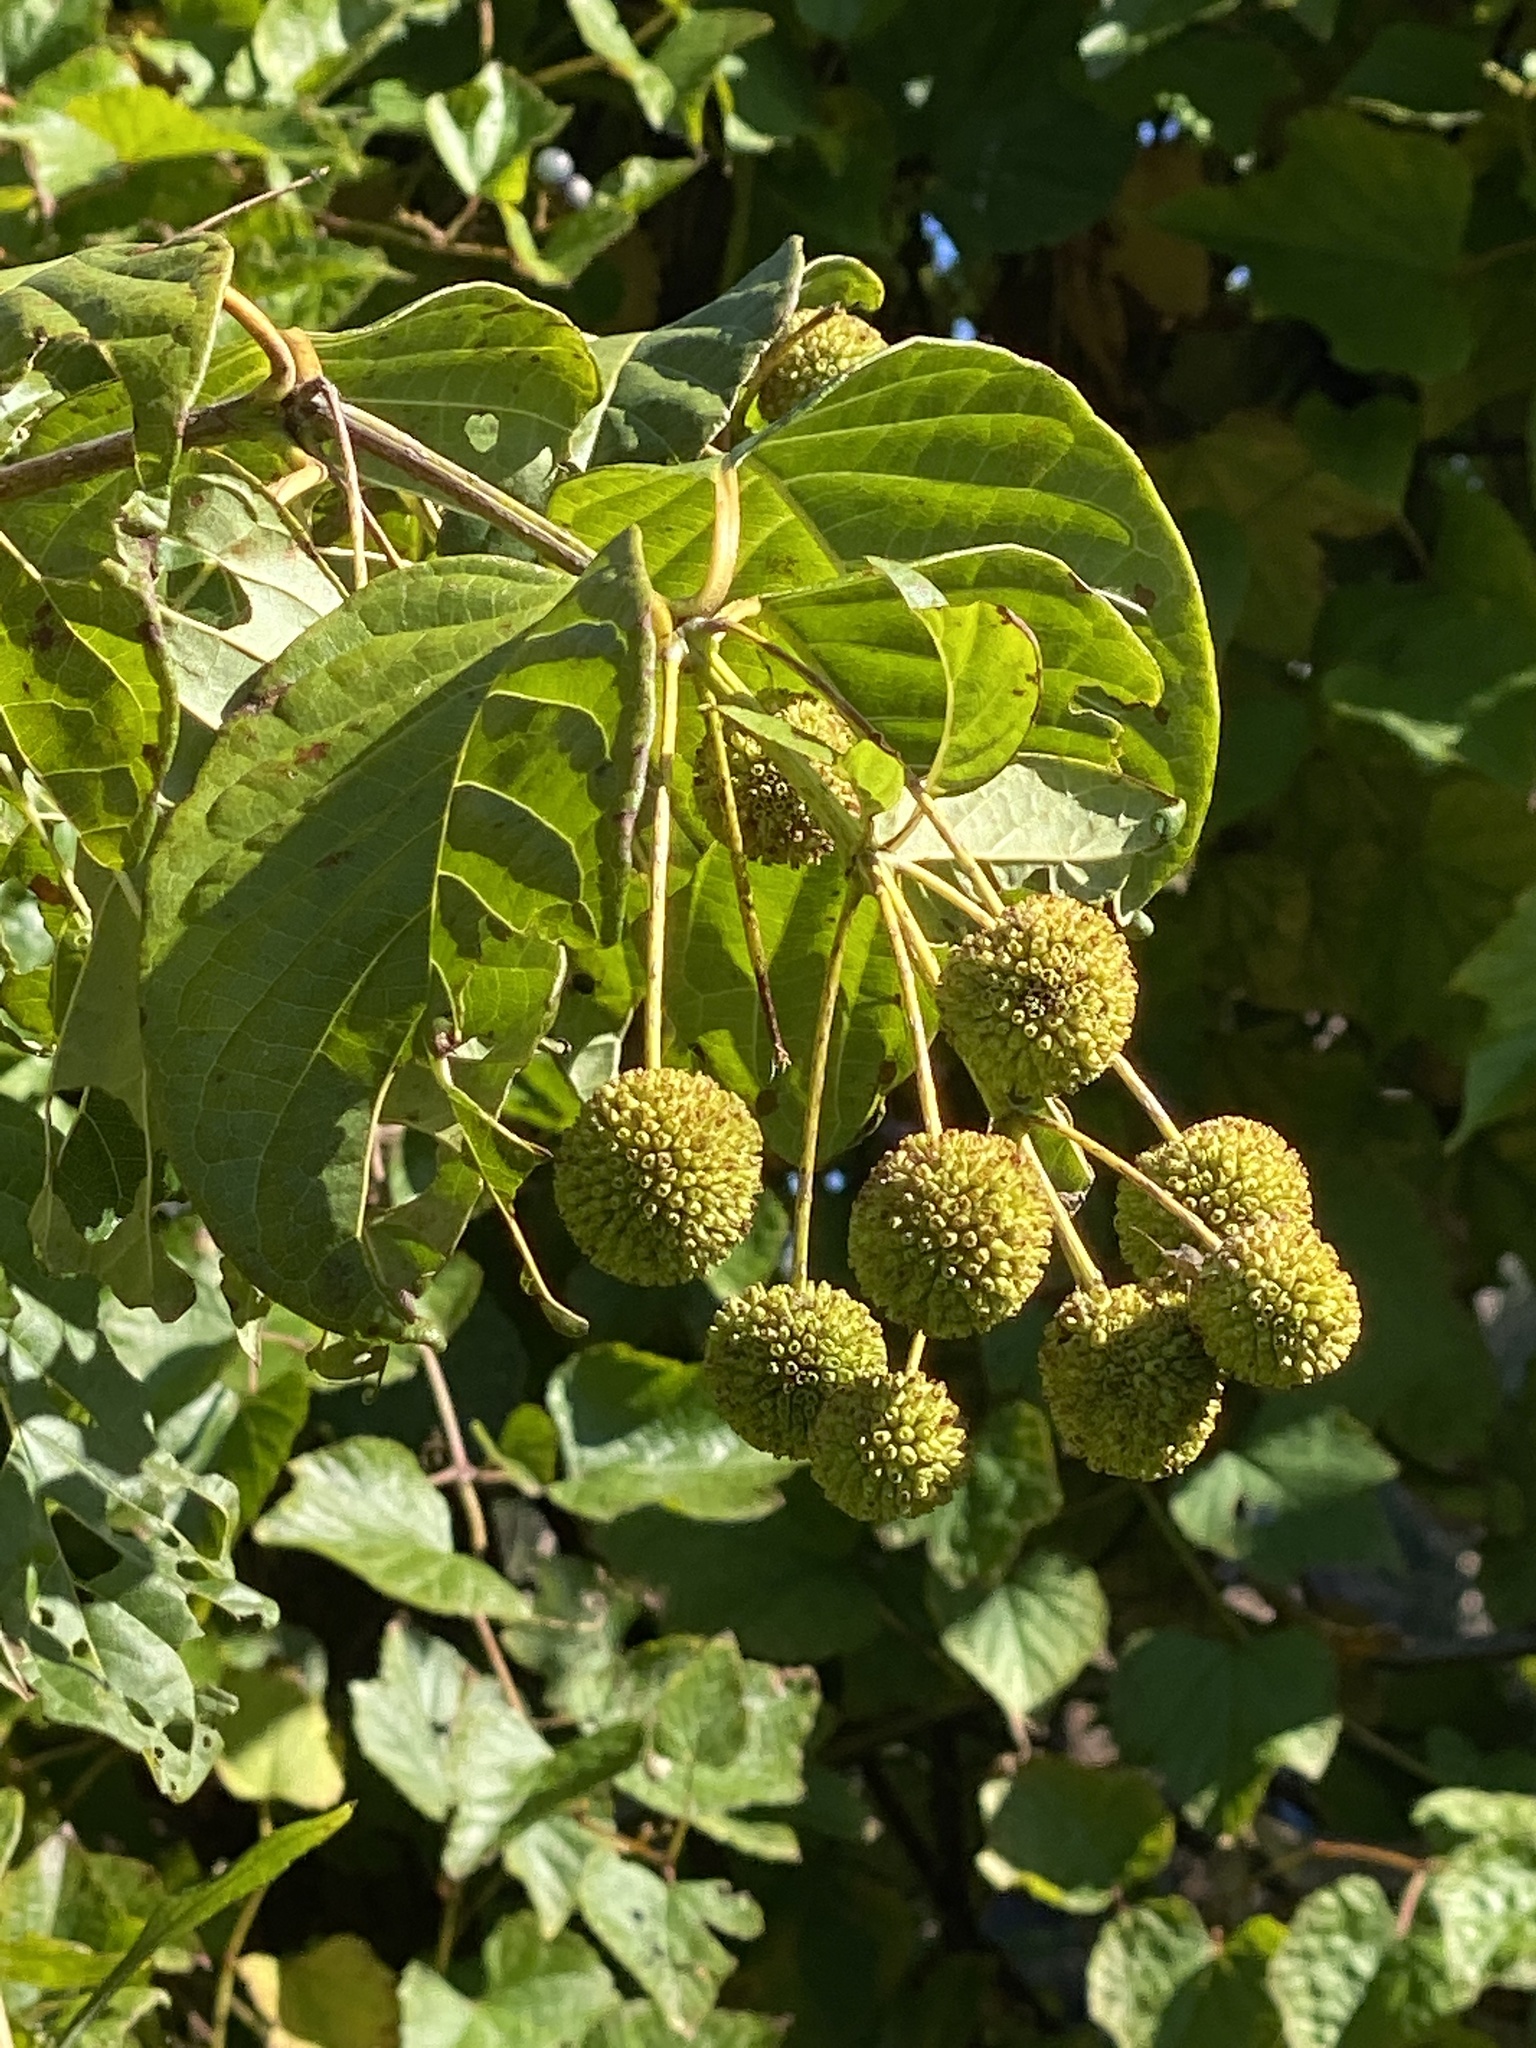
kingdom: Plantae
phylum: Tracheophyta
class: Magnoliopsida
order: Gentianales
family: Rubiaceae
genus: Cephalanthus
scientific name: Cephalanthus occidentalis
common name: Button-willow
